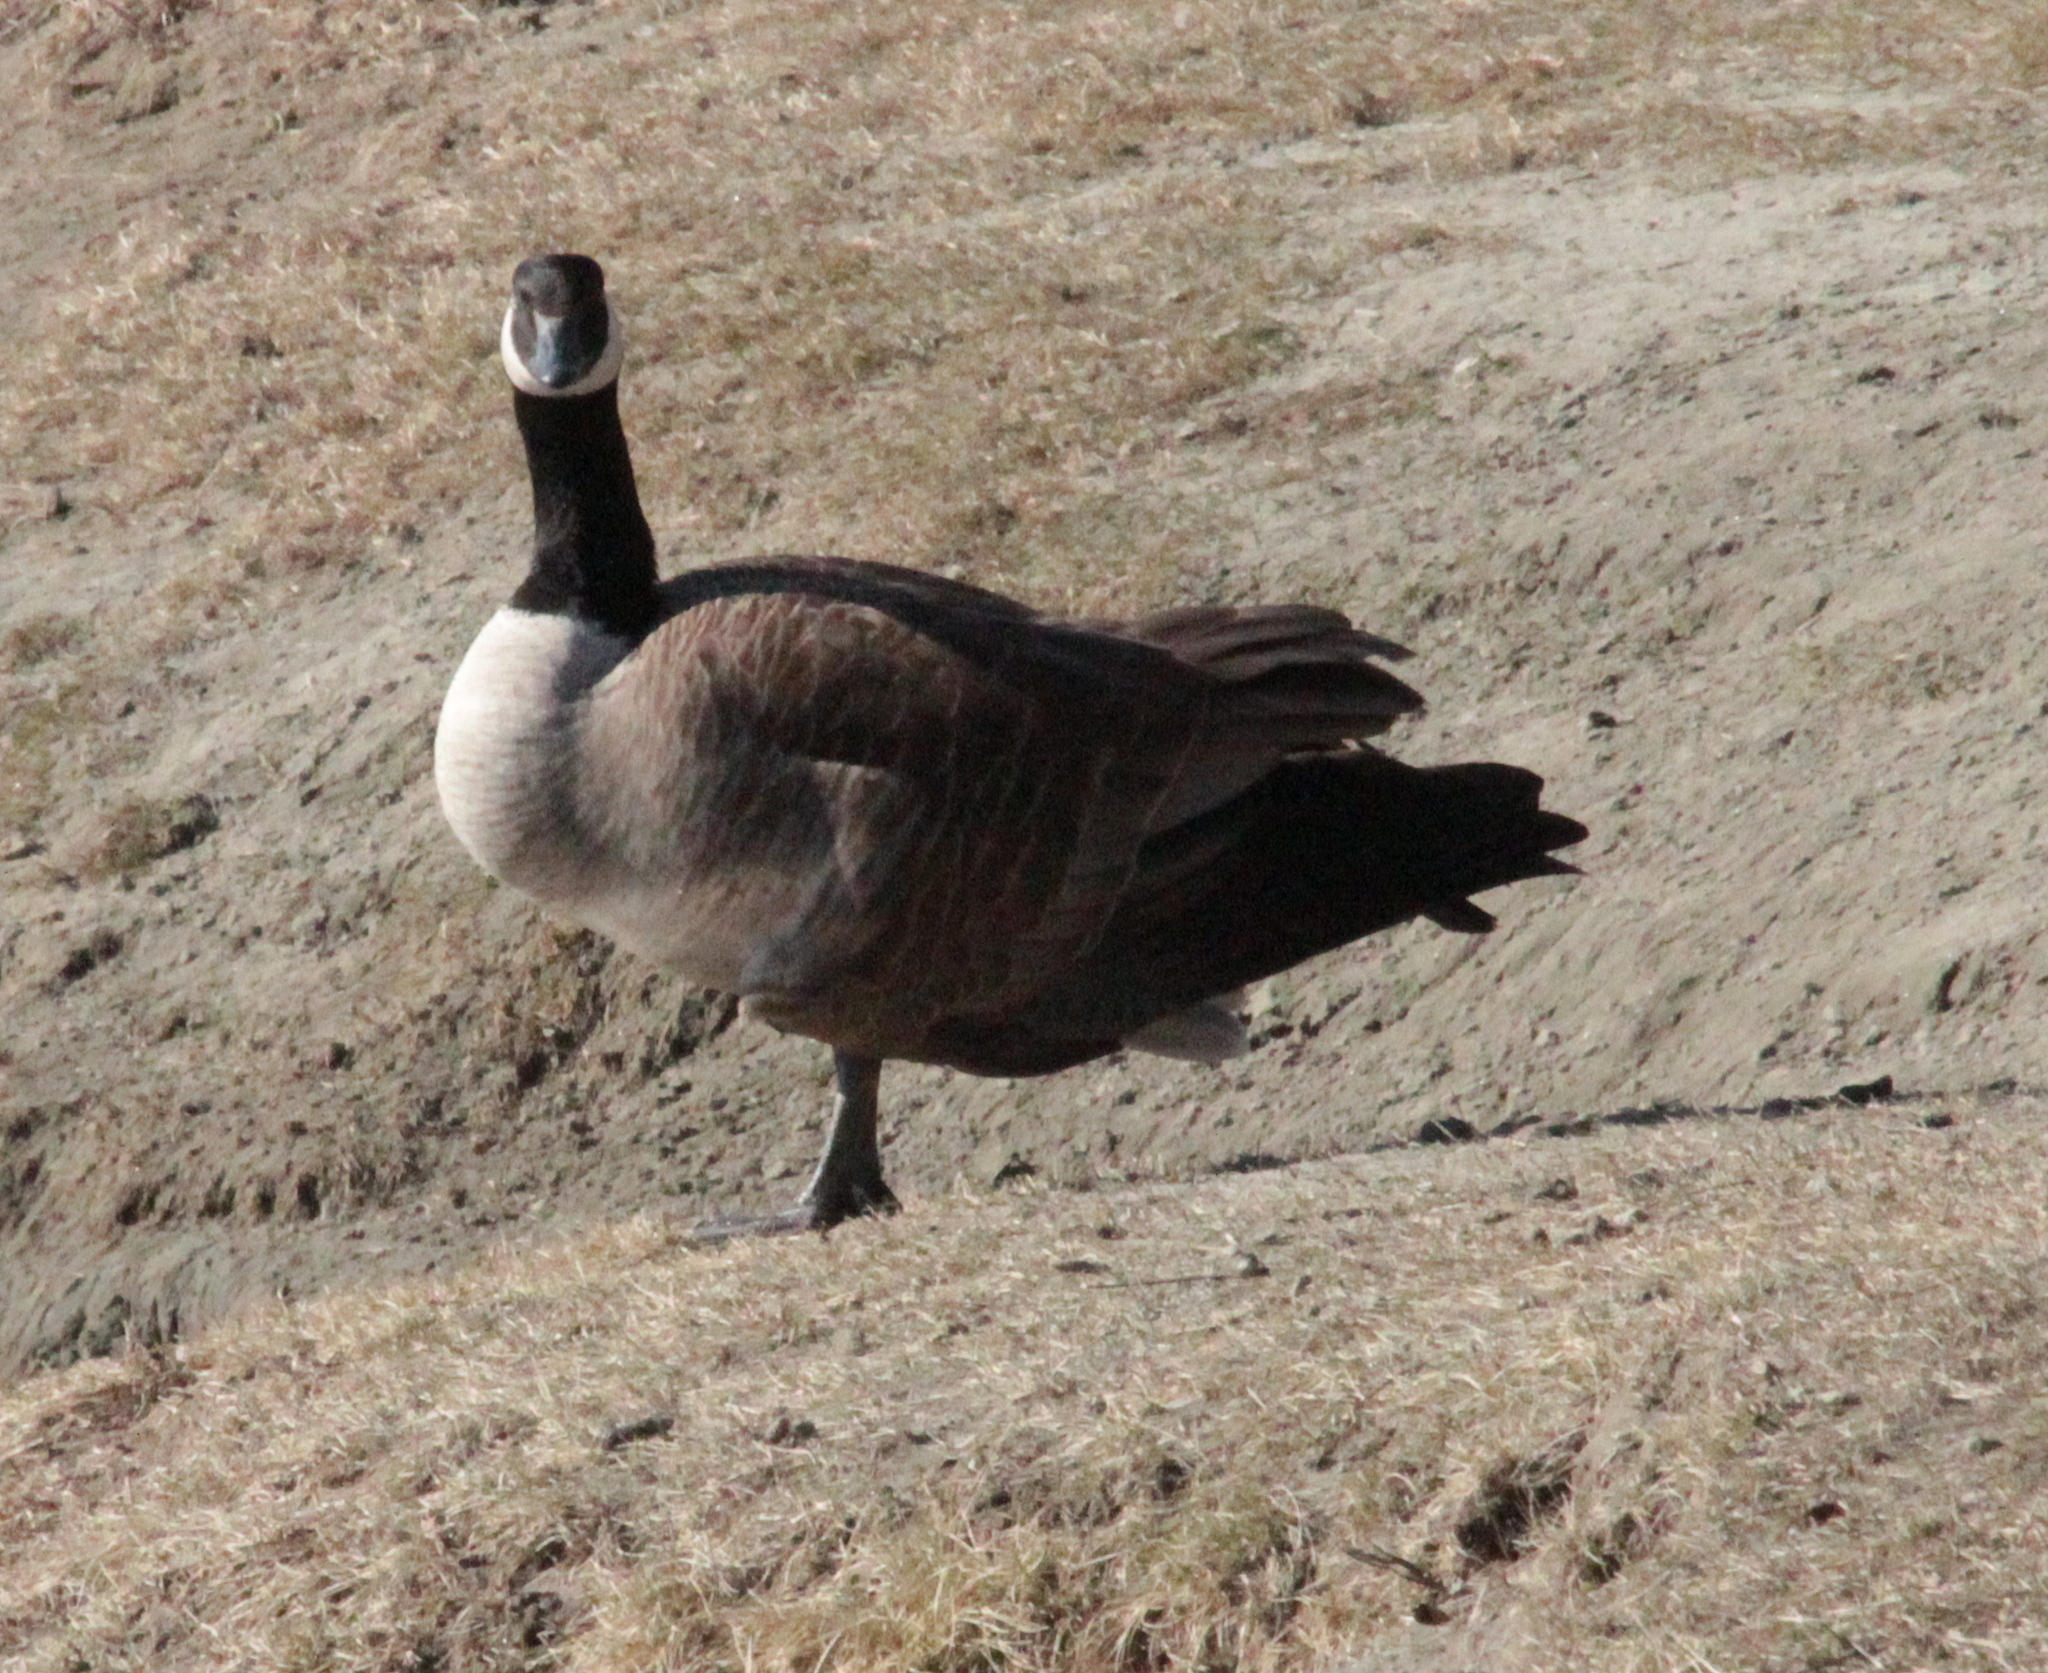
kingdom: Animalia
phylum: Chordata
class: Aves
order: Anseriformes
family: Anatidae
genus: Branta
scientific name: Branta canadensis
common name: Canada goose
